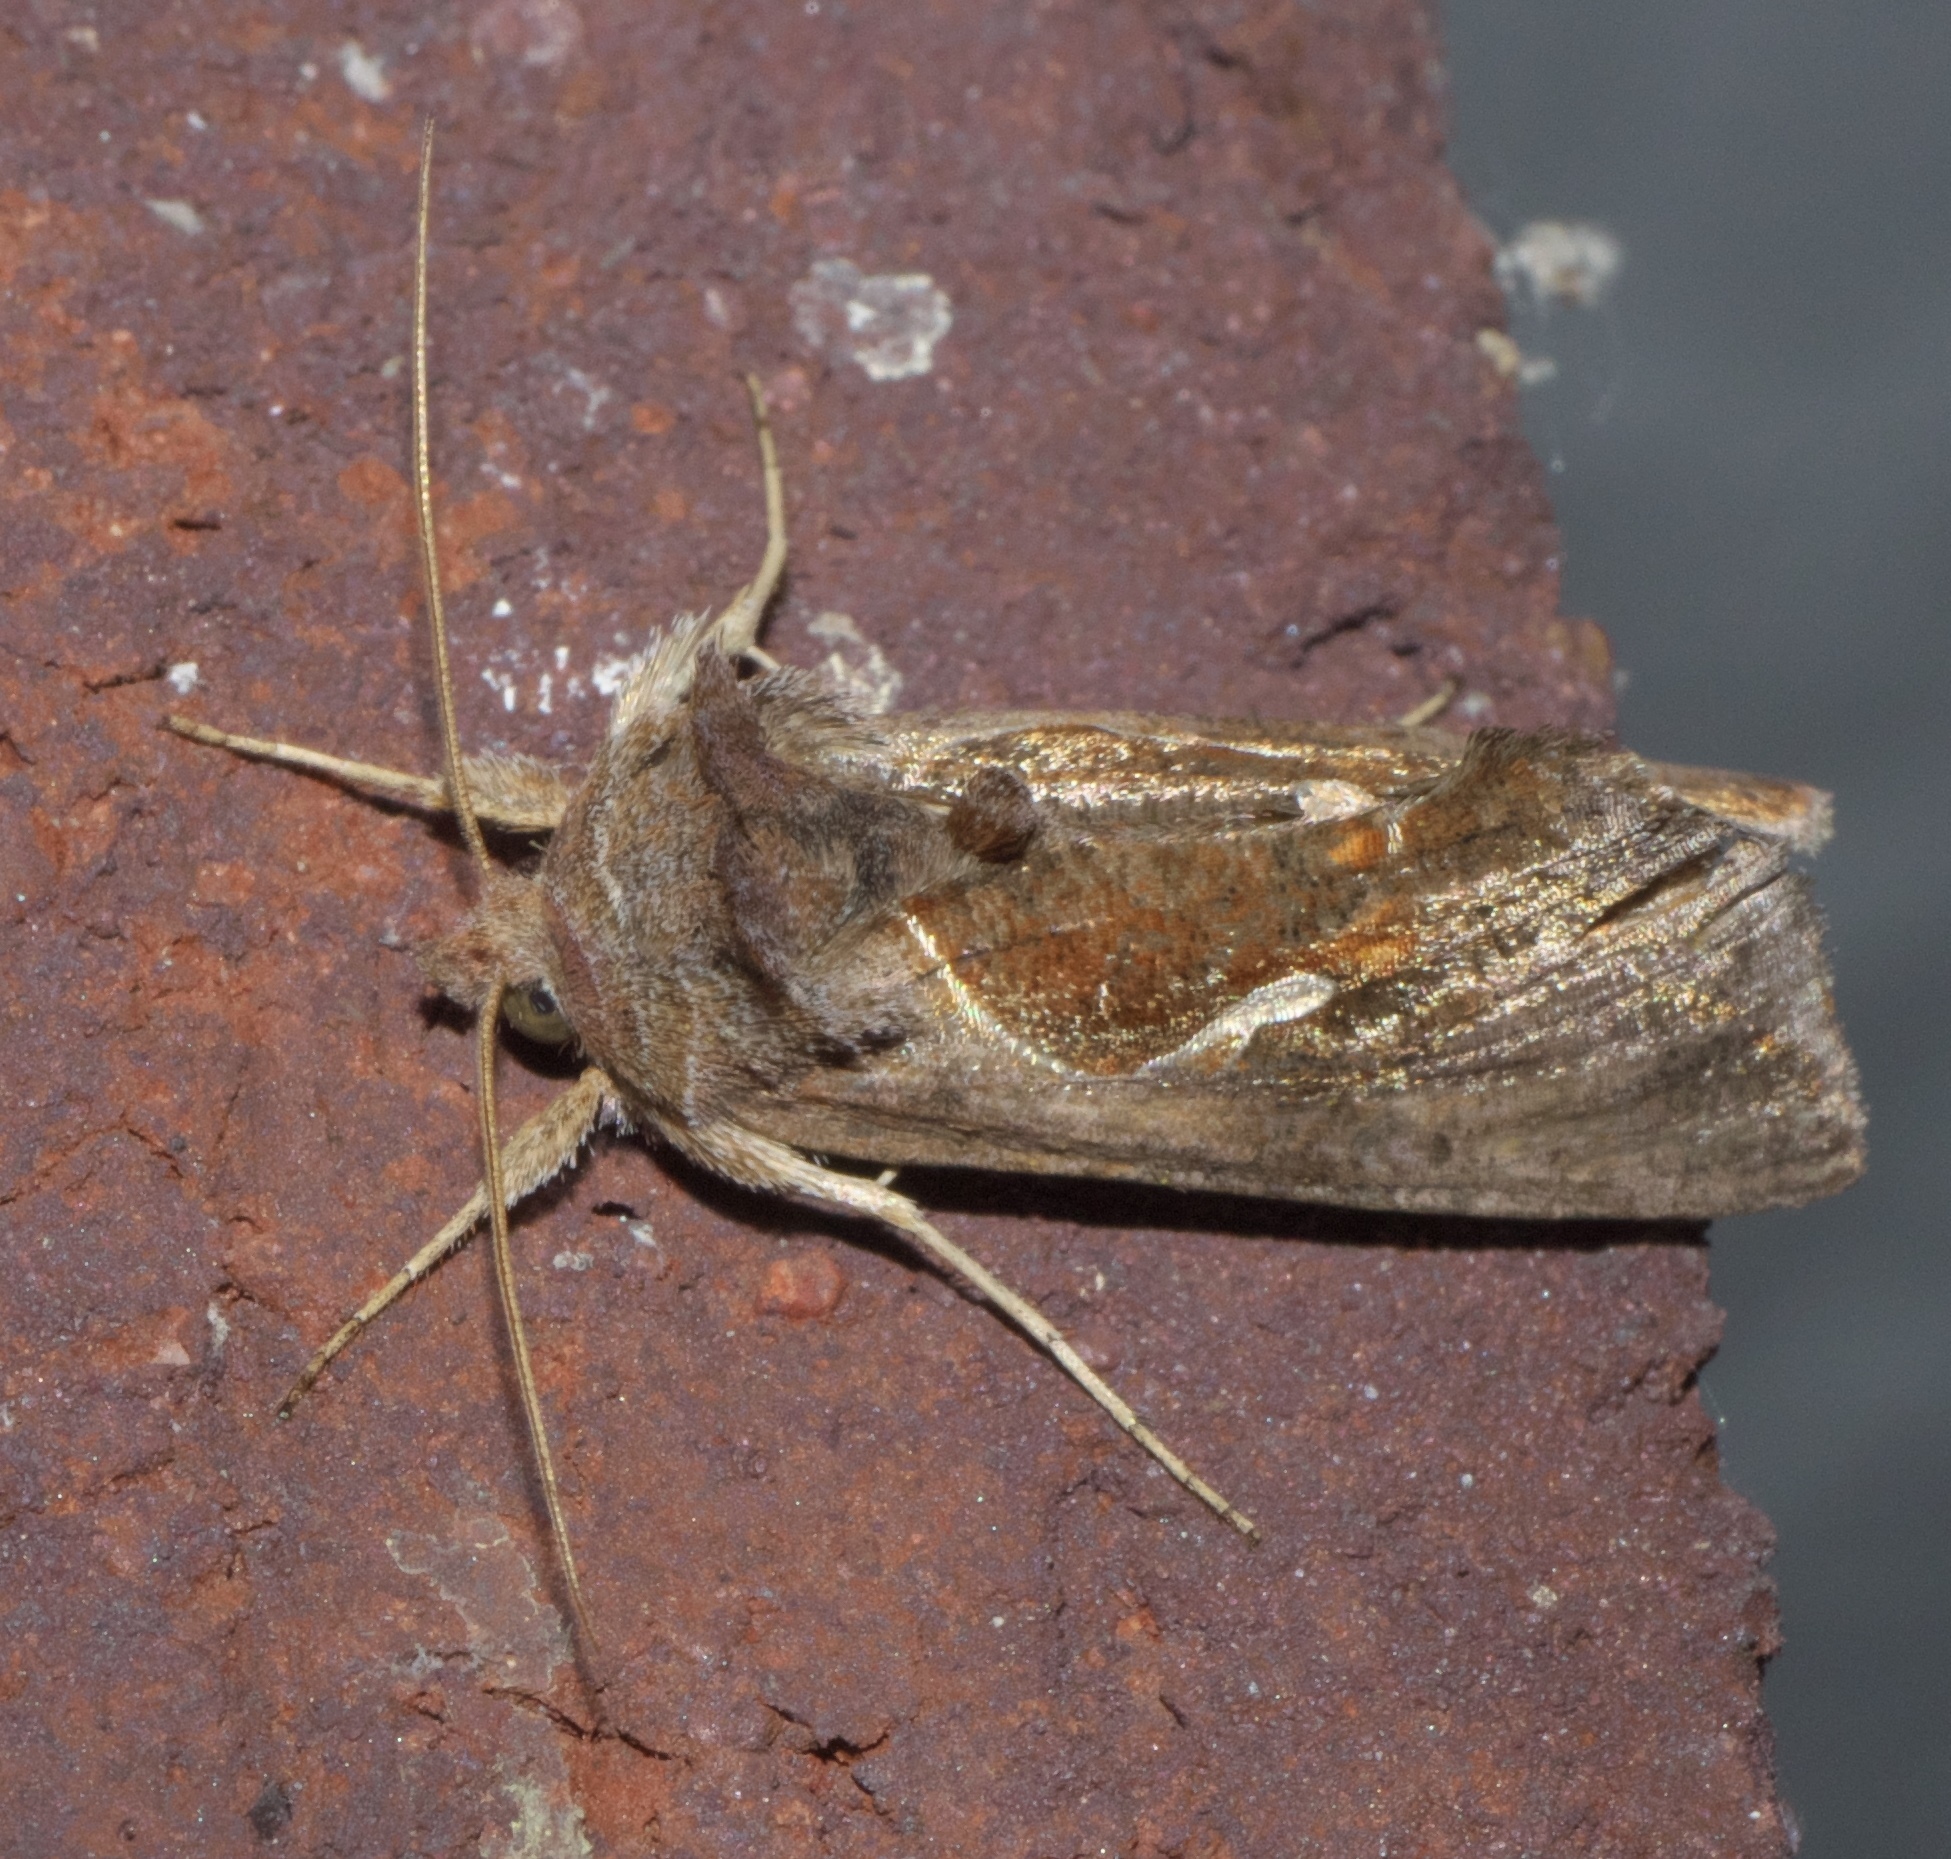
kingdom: Animalia
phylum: Arthropoda
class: Insecta
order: Lepidoptera
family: Noctuidae
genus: Anagrapha
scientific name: Anagrapha falcifera
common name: Celery looper
